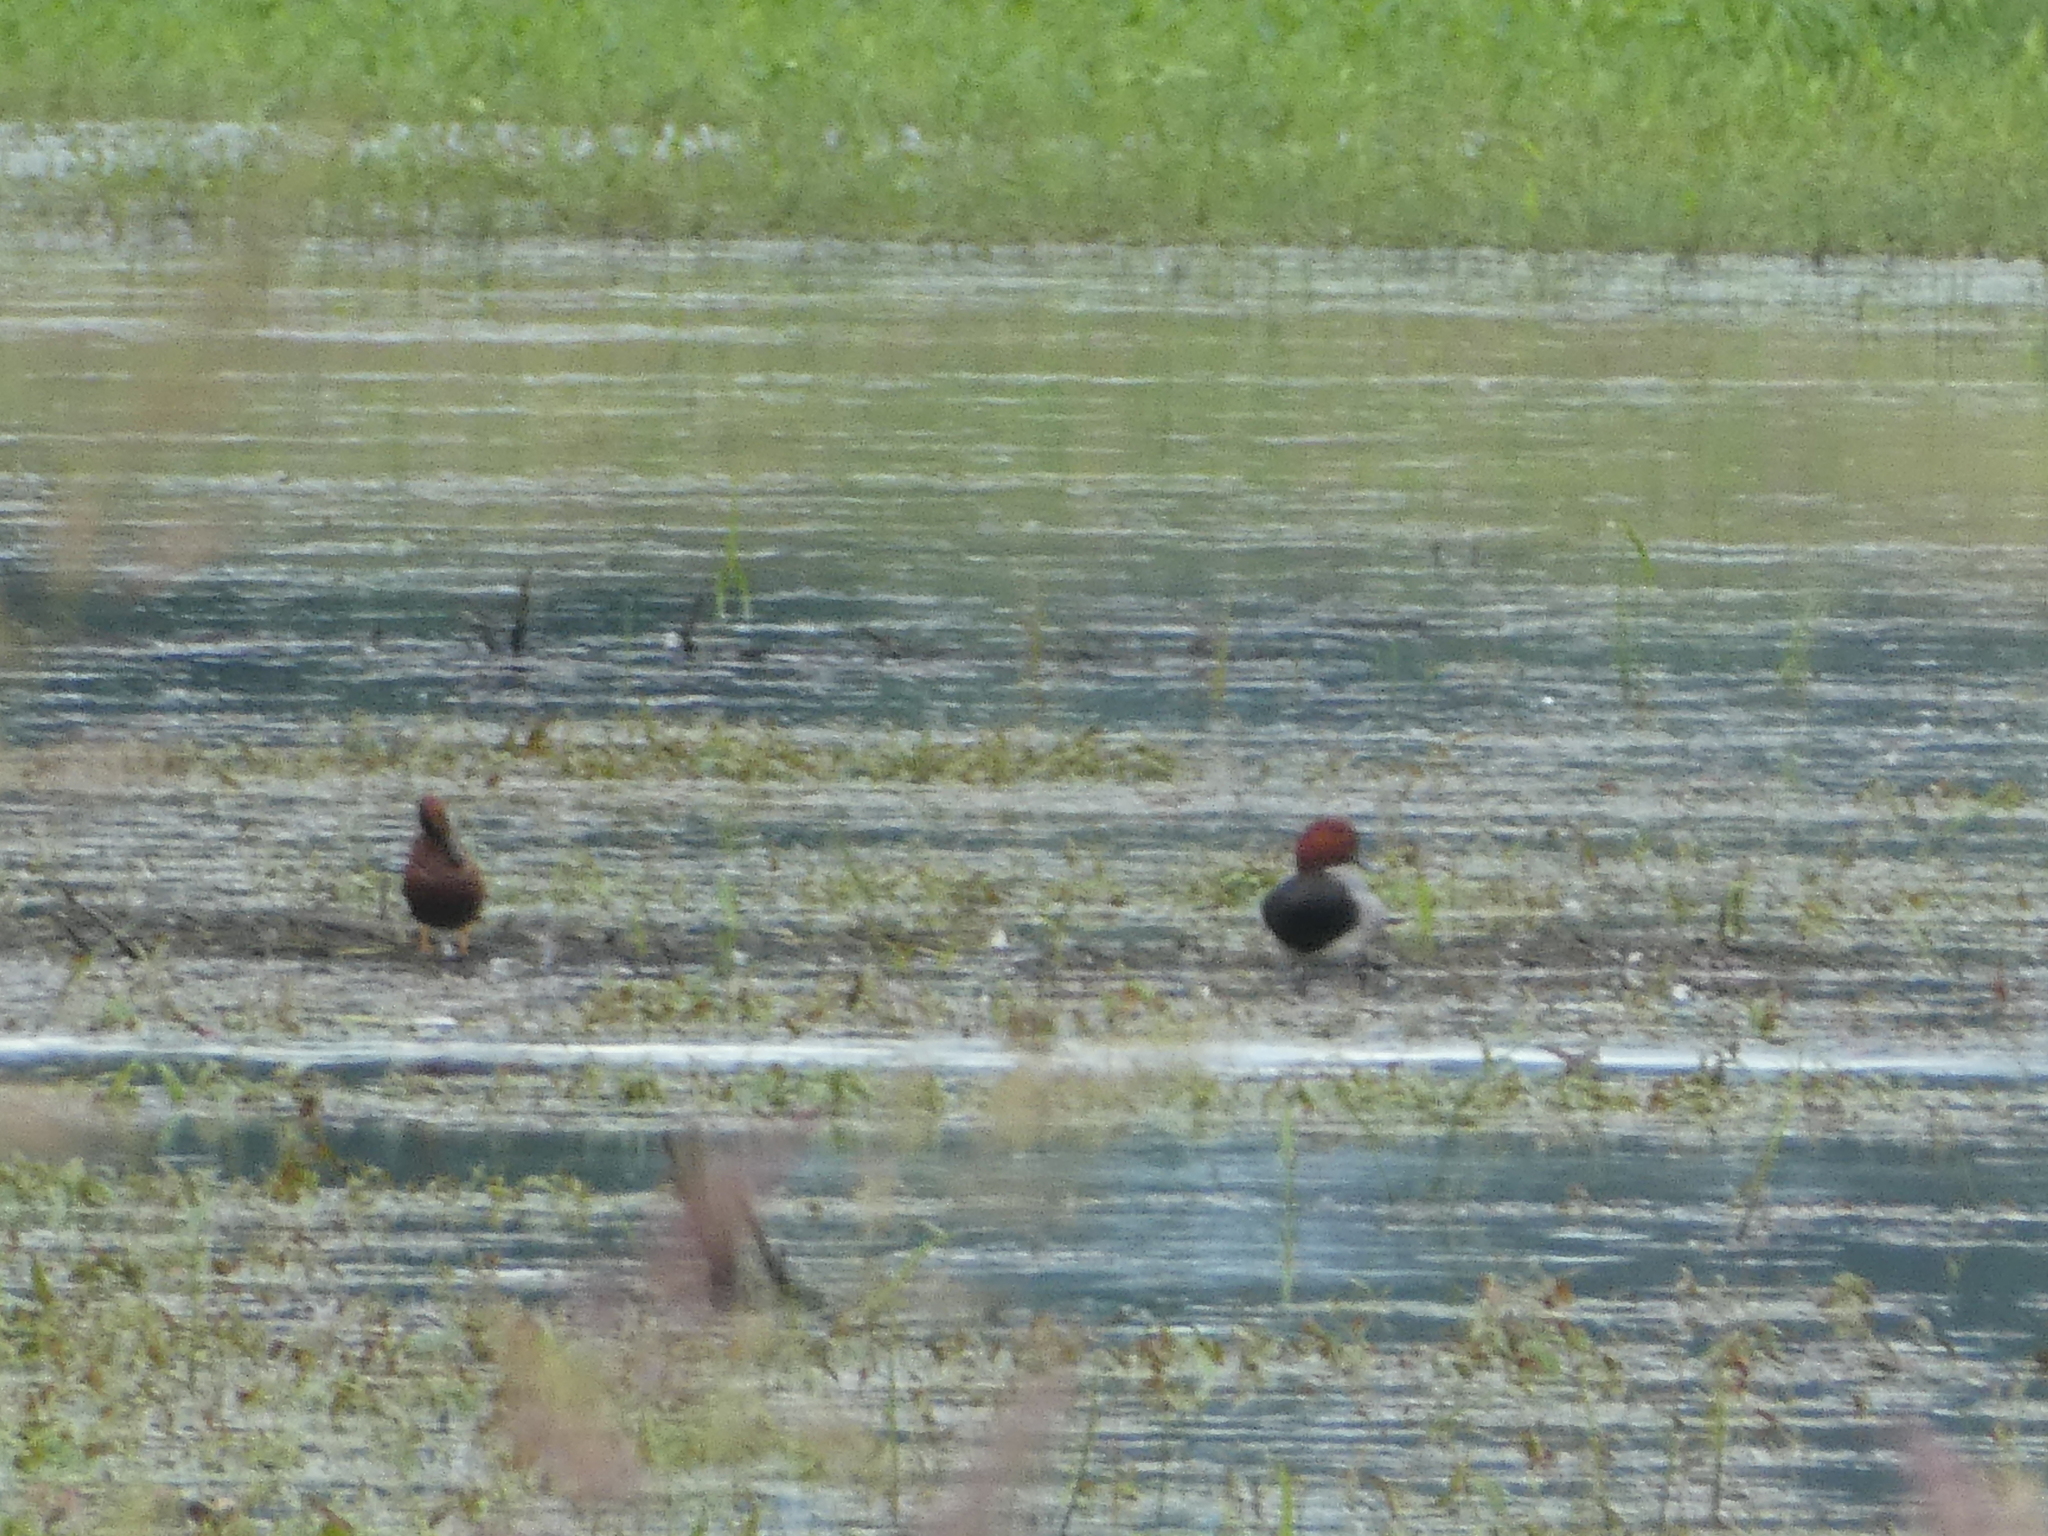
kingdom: Animalia
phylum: Chordata
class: Aves
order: Anseriformes
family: Anatidae
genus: Aythya
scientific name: Aythya americana
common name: Redhead
